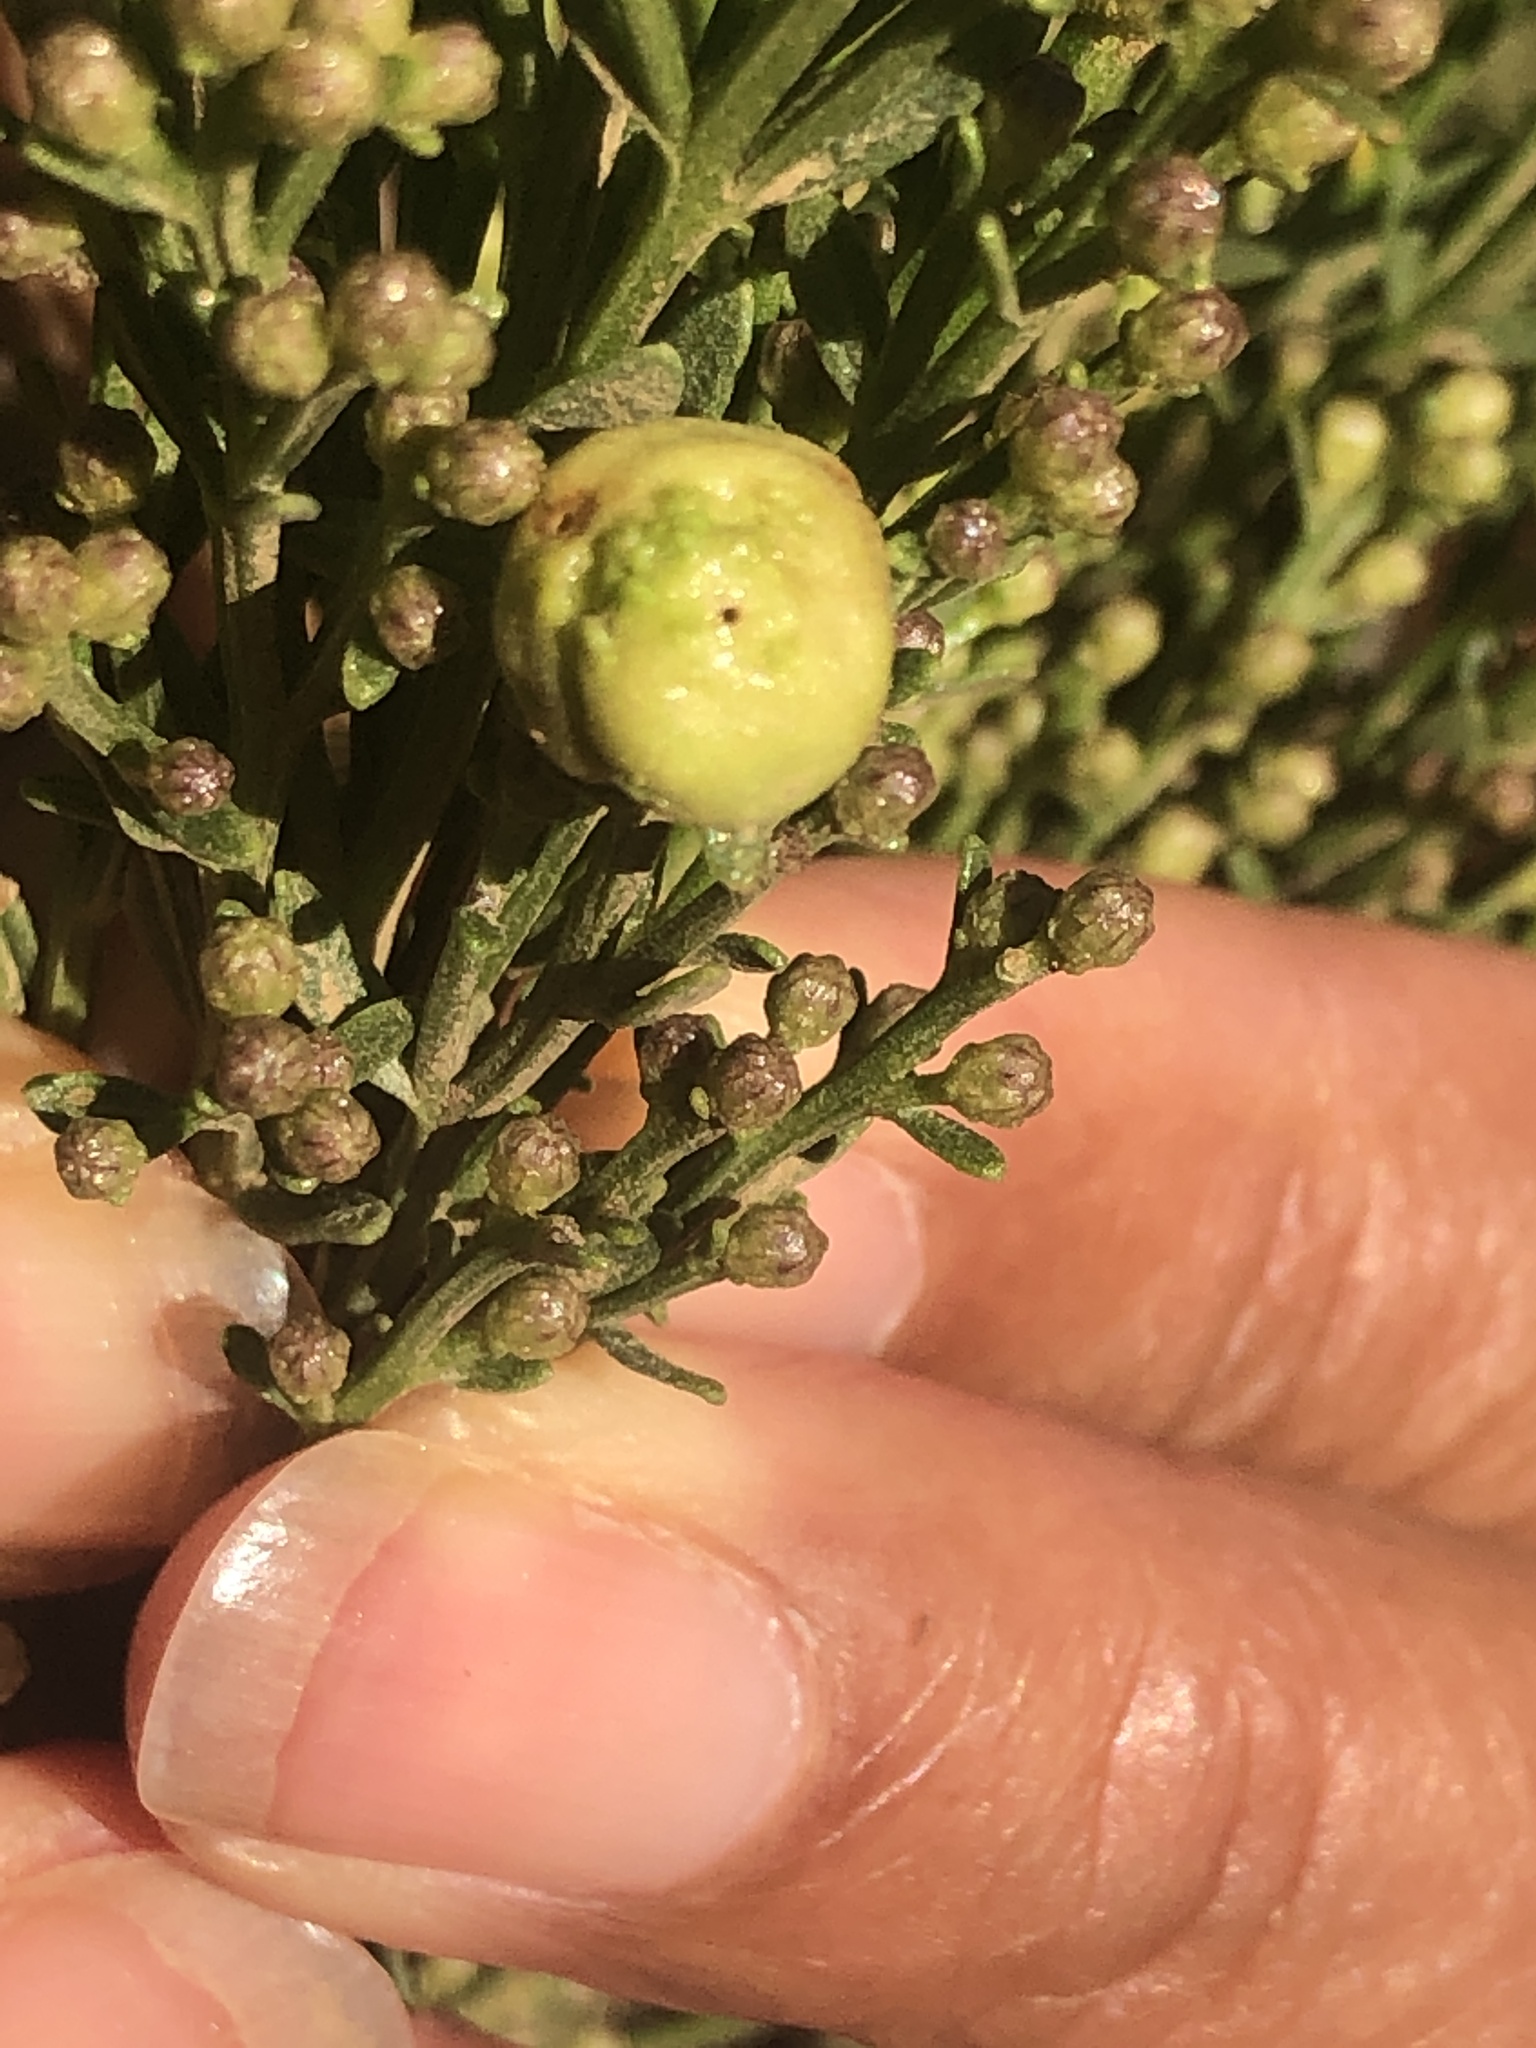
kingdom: Animalia
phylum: Arthropoda
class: Insecta
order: Diptera
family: Cecidomyiidae
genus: Rhopalomyia
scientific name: Rhopalomyia californica
